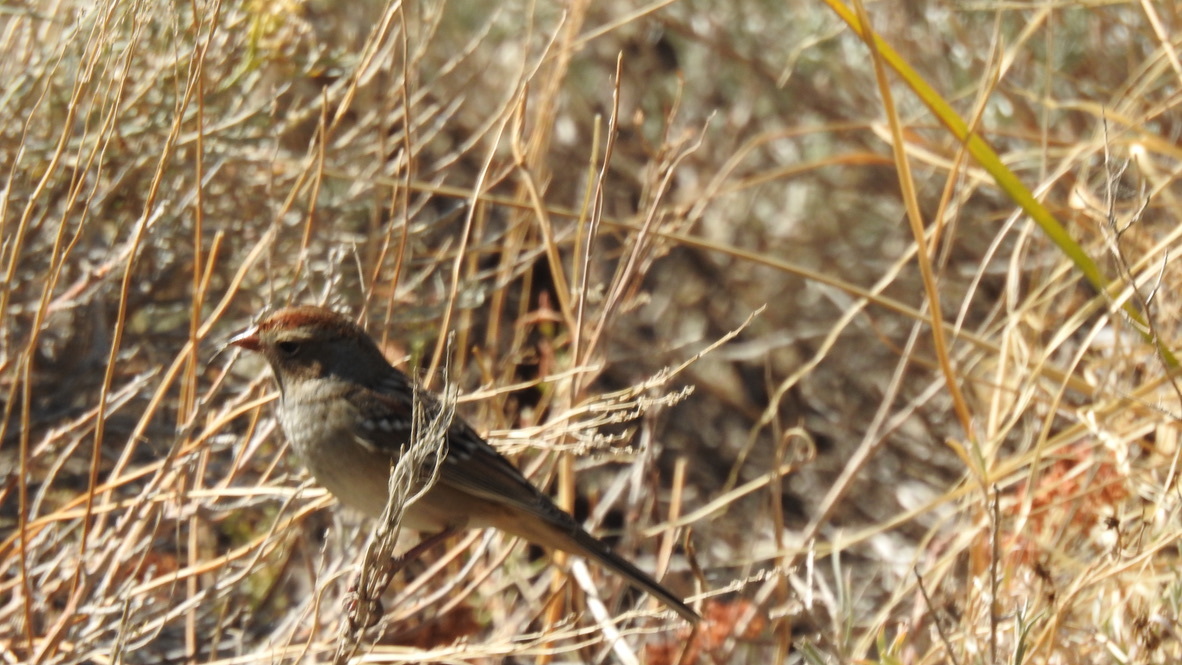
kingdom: Animalia
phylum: Chordata
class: Aves
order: Passeriformes
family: Passerellidae
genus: Zonotrichia
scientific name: Zonotrichia leucophrys
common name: White-crowned sparrow
